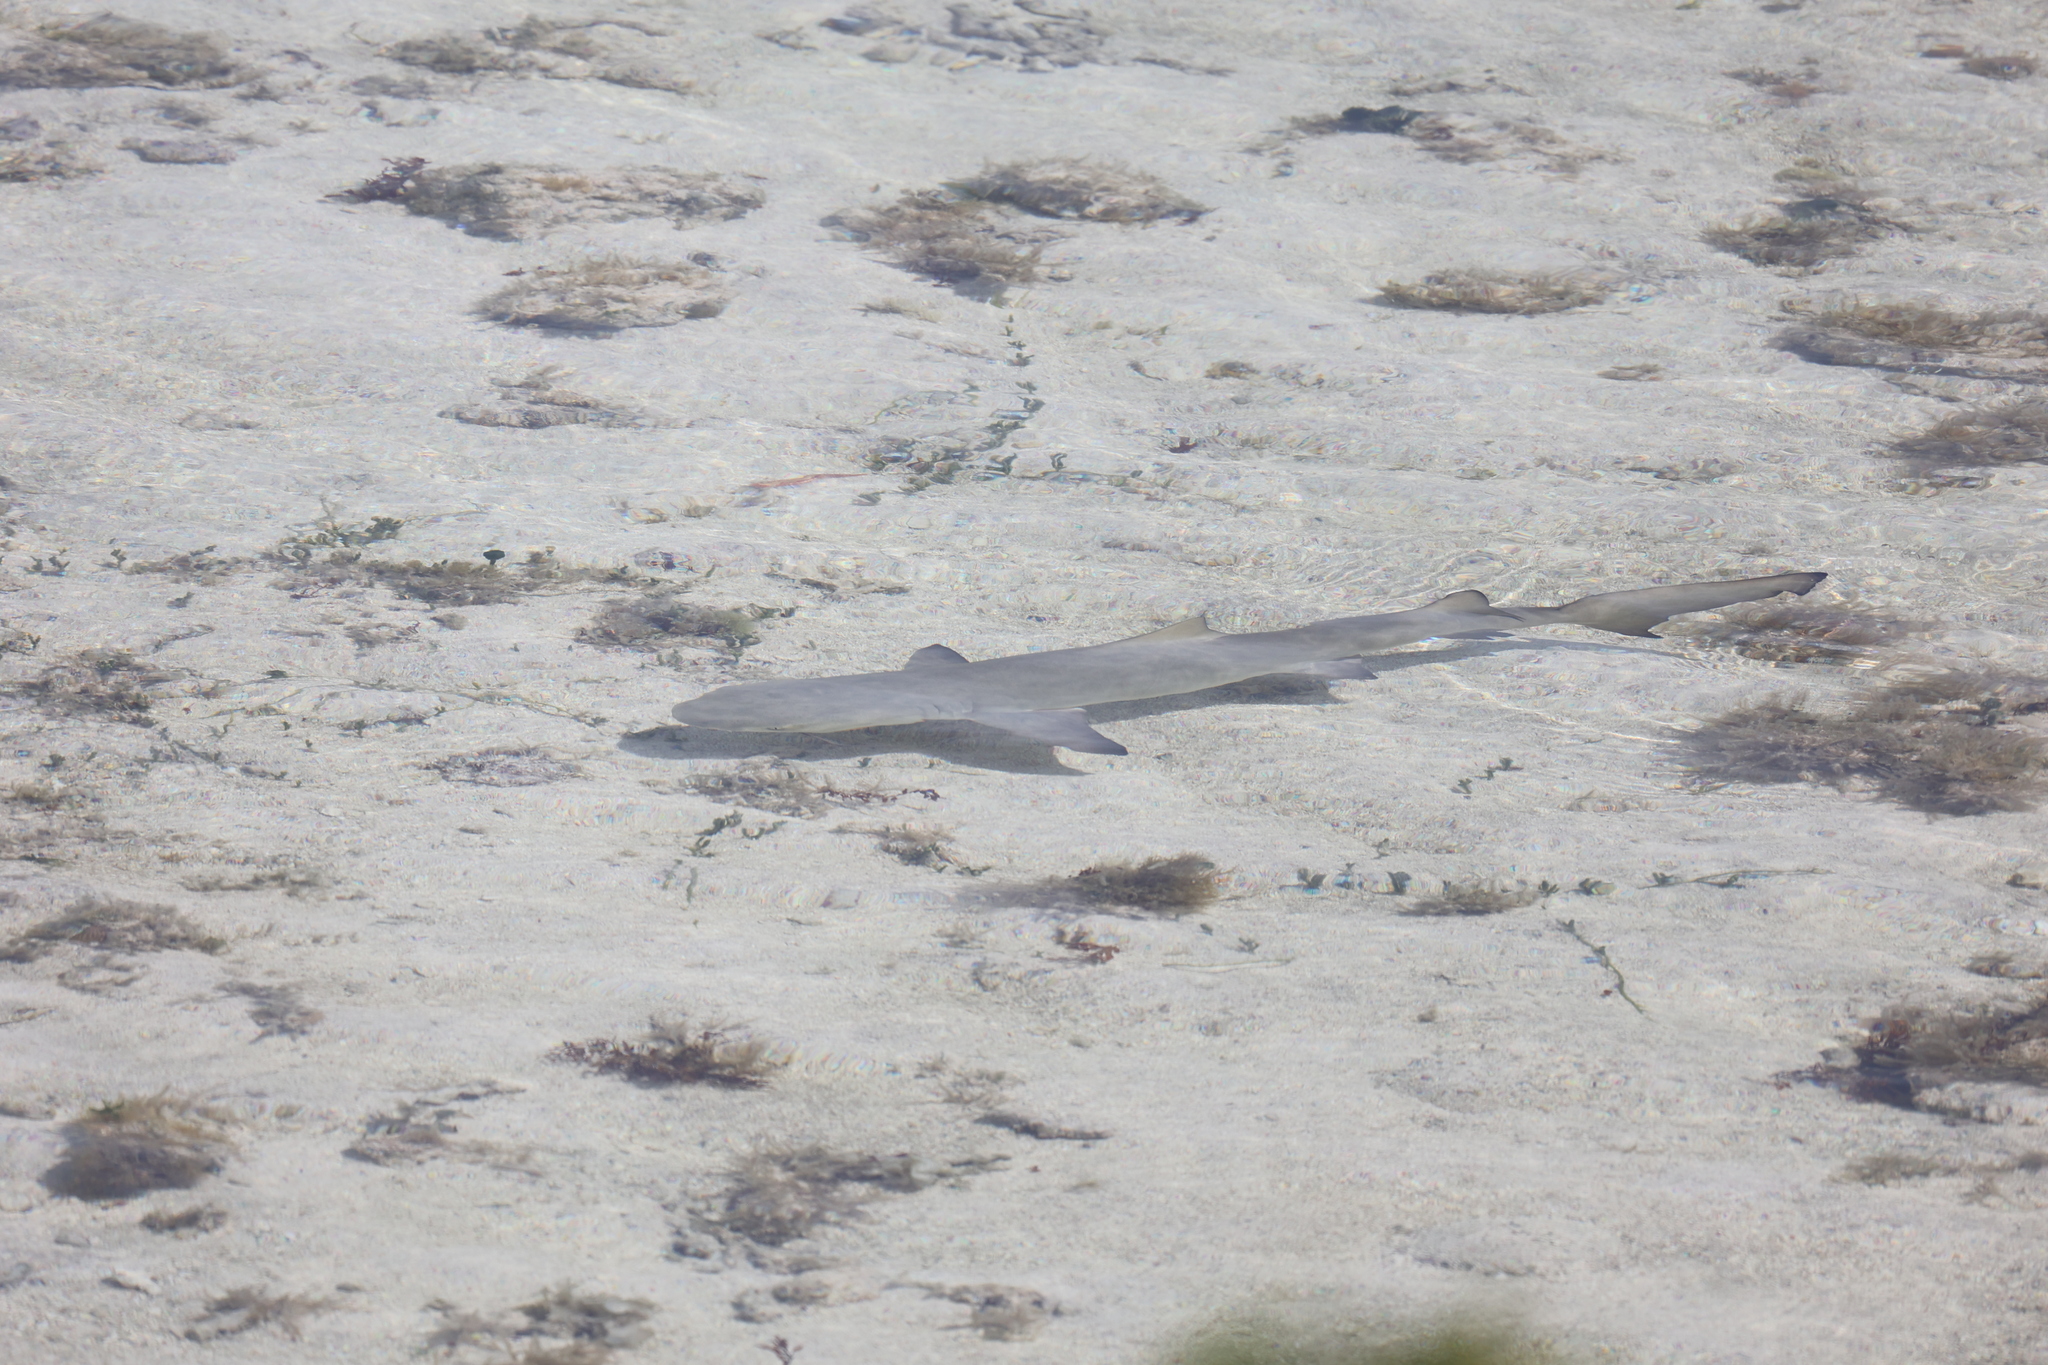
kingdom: Animalia
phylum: Chordata
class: Elasmobranchii
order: Carcharhiniformes
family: Carcharhinidae
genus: Negaprion
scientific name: Negaprion brevirostris
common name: Lemon shark
